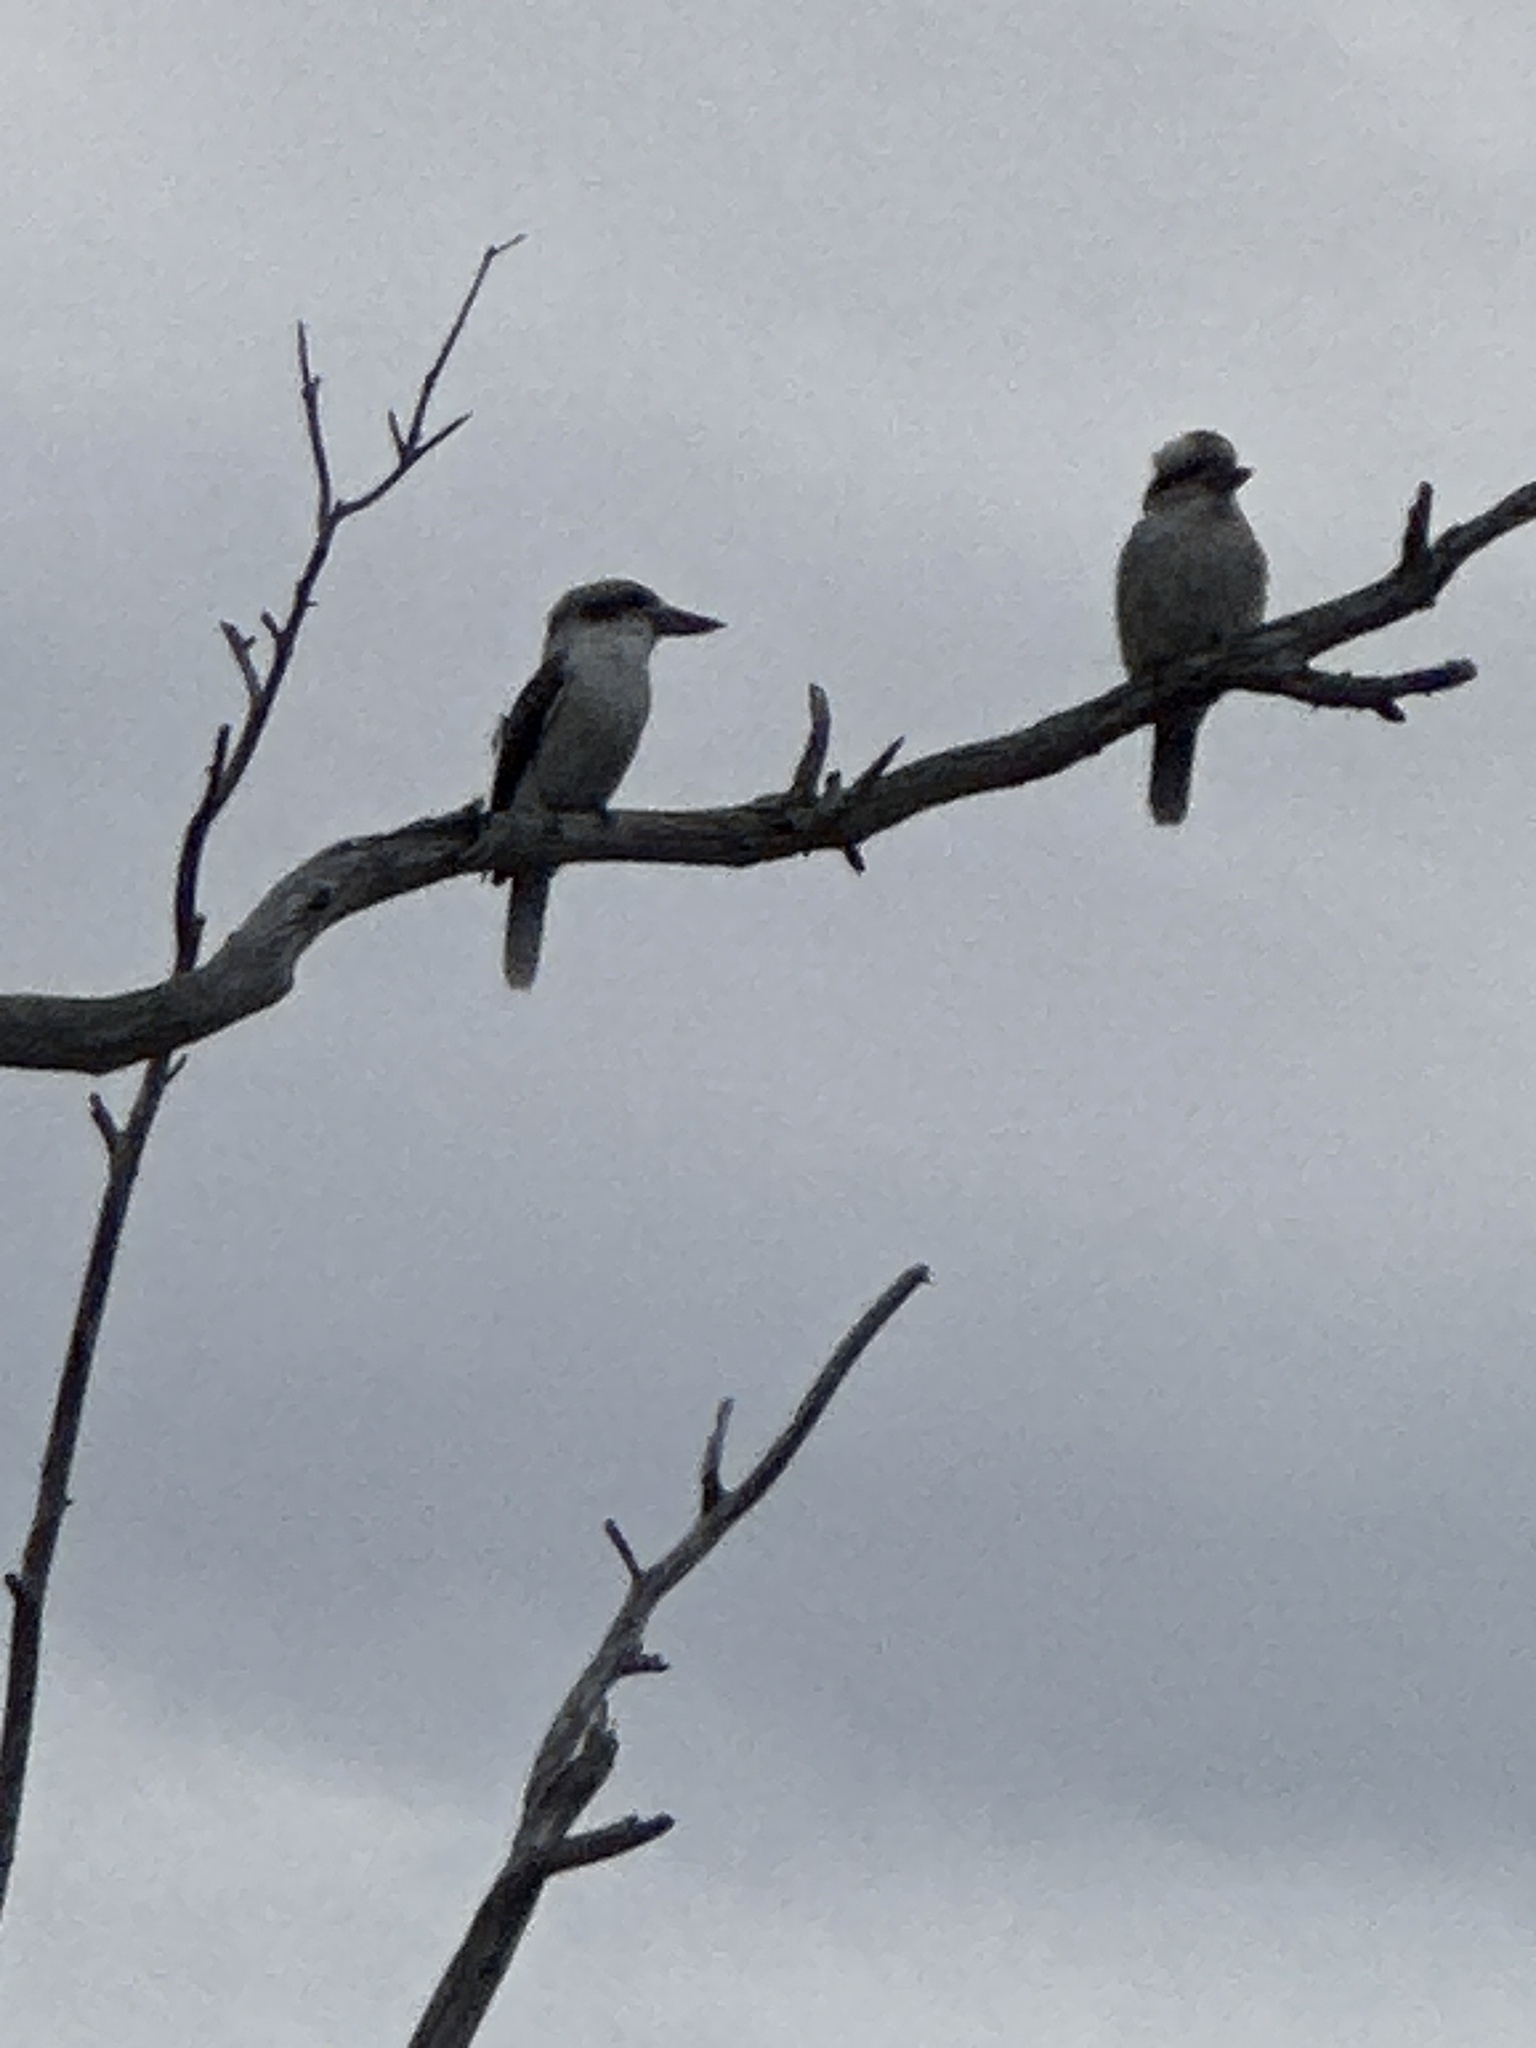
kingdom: Animalia
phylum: Chordata
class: Aves
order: Coraciiformes
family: Alcedinidae
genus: Dacelo
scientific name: Dacelo novaeguineae
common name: Laughing kookaburra
